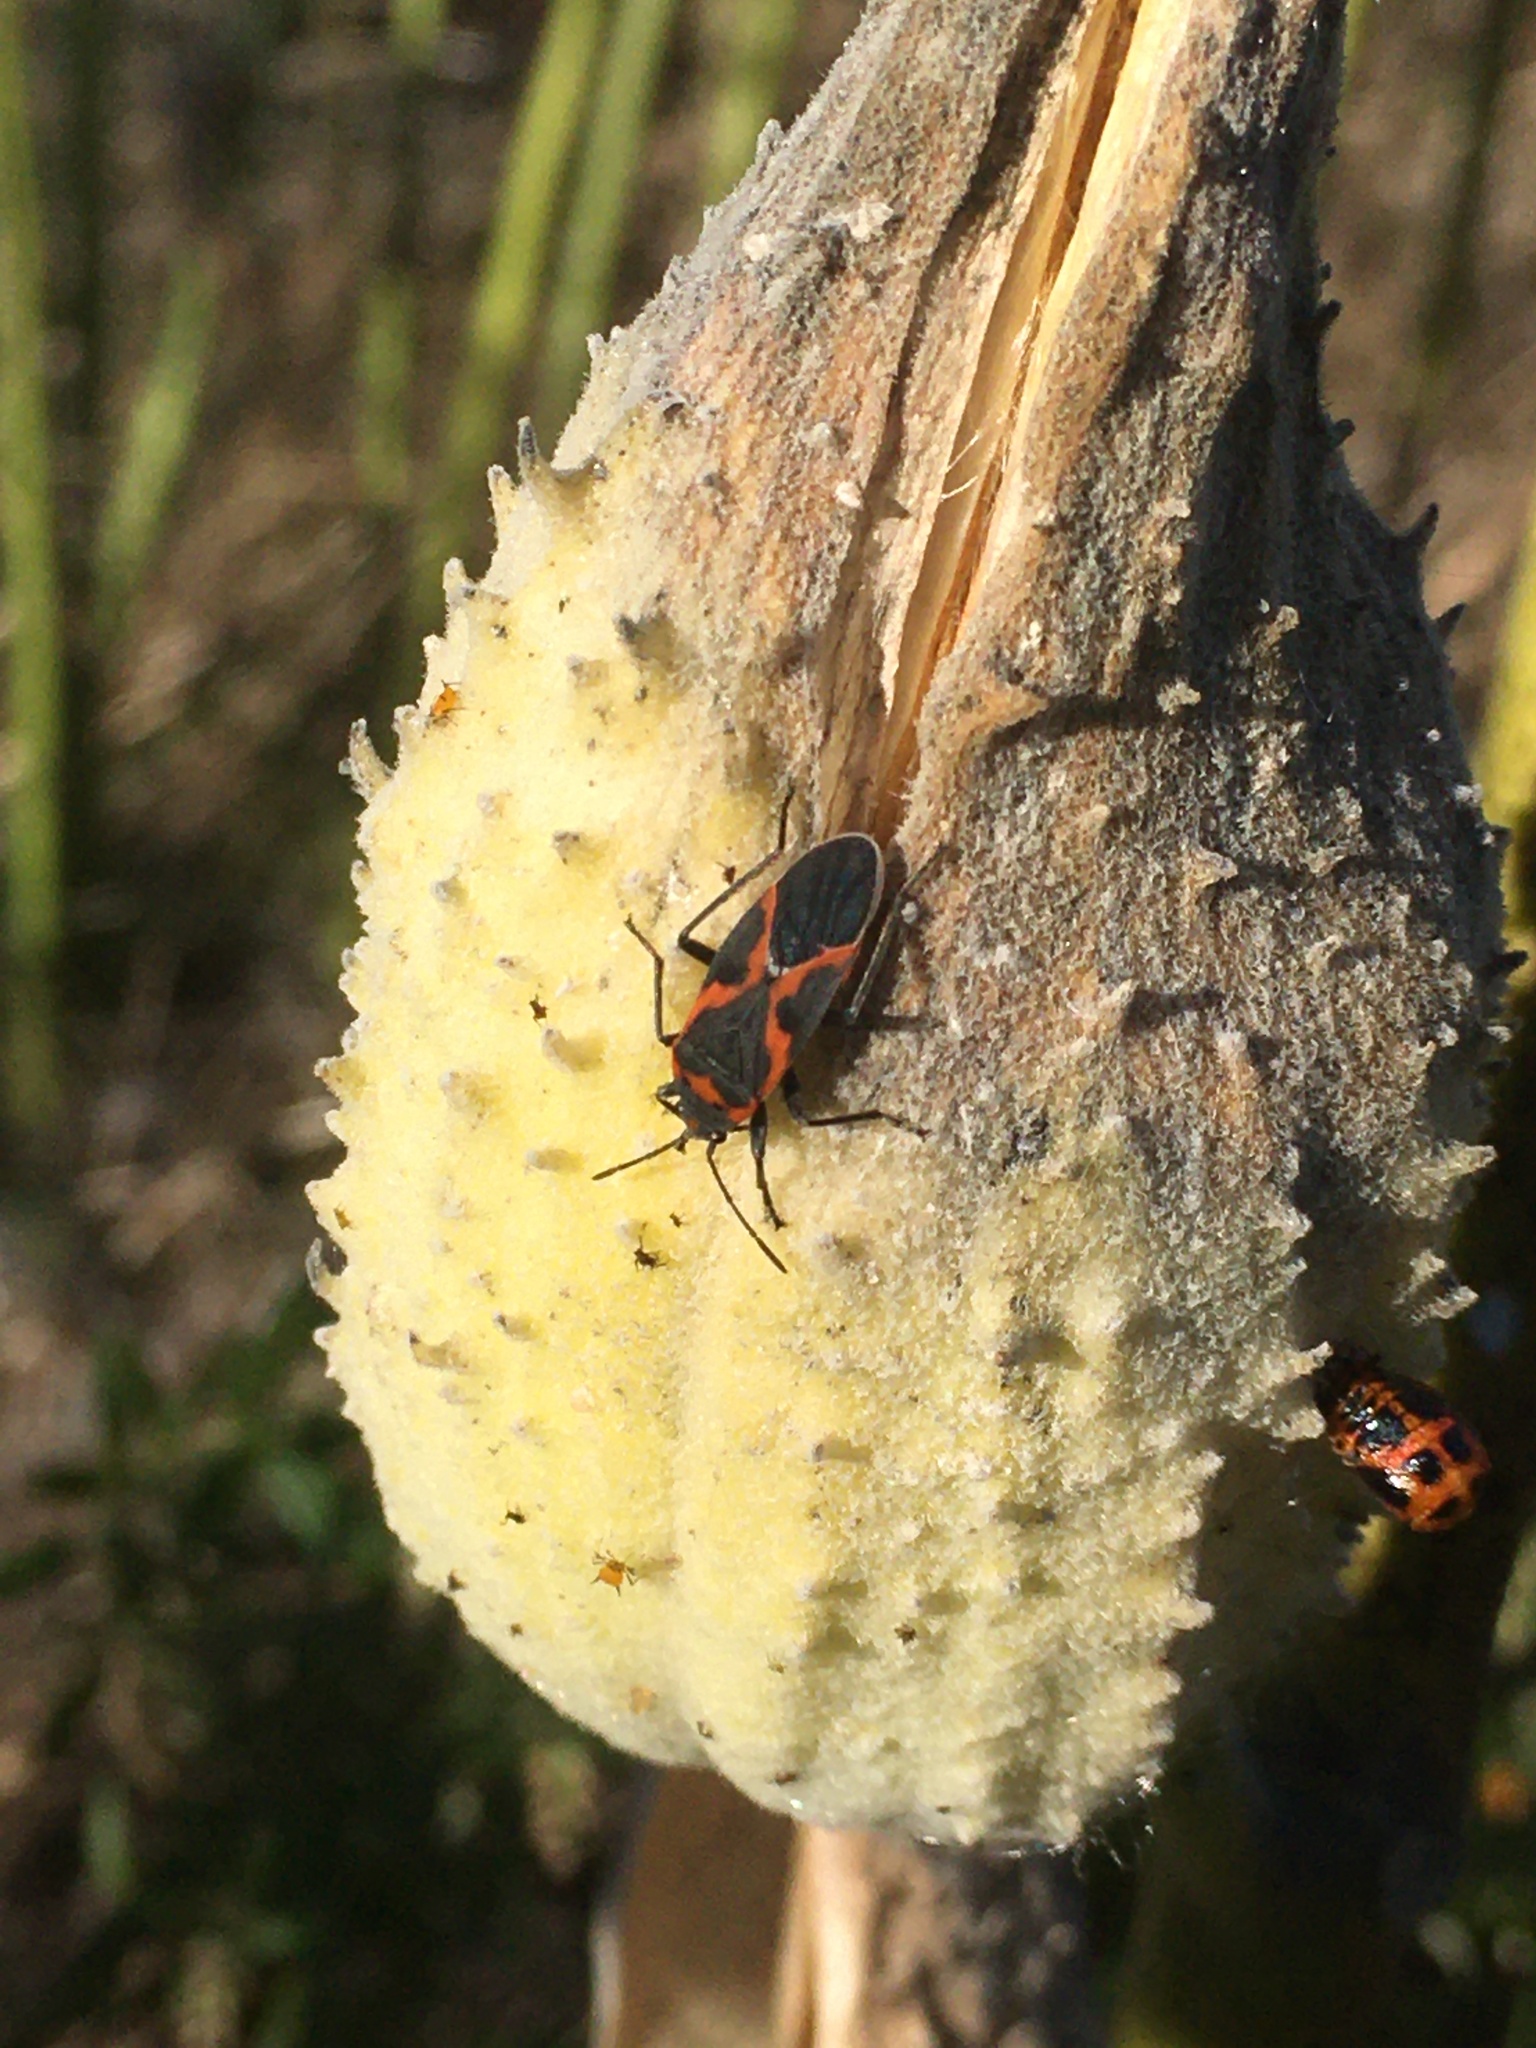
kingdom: Animalia
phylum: Arthropoda
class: Insecta
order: Hemiptera
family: Lygaeidae
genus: Lygaeus
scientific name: Lygaeus kalmii
